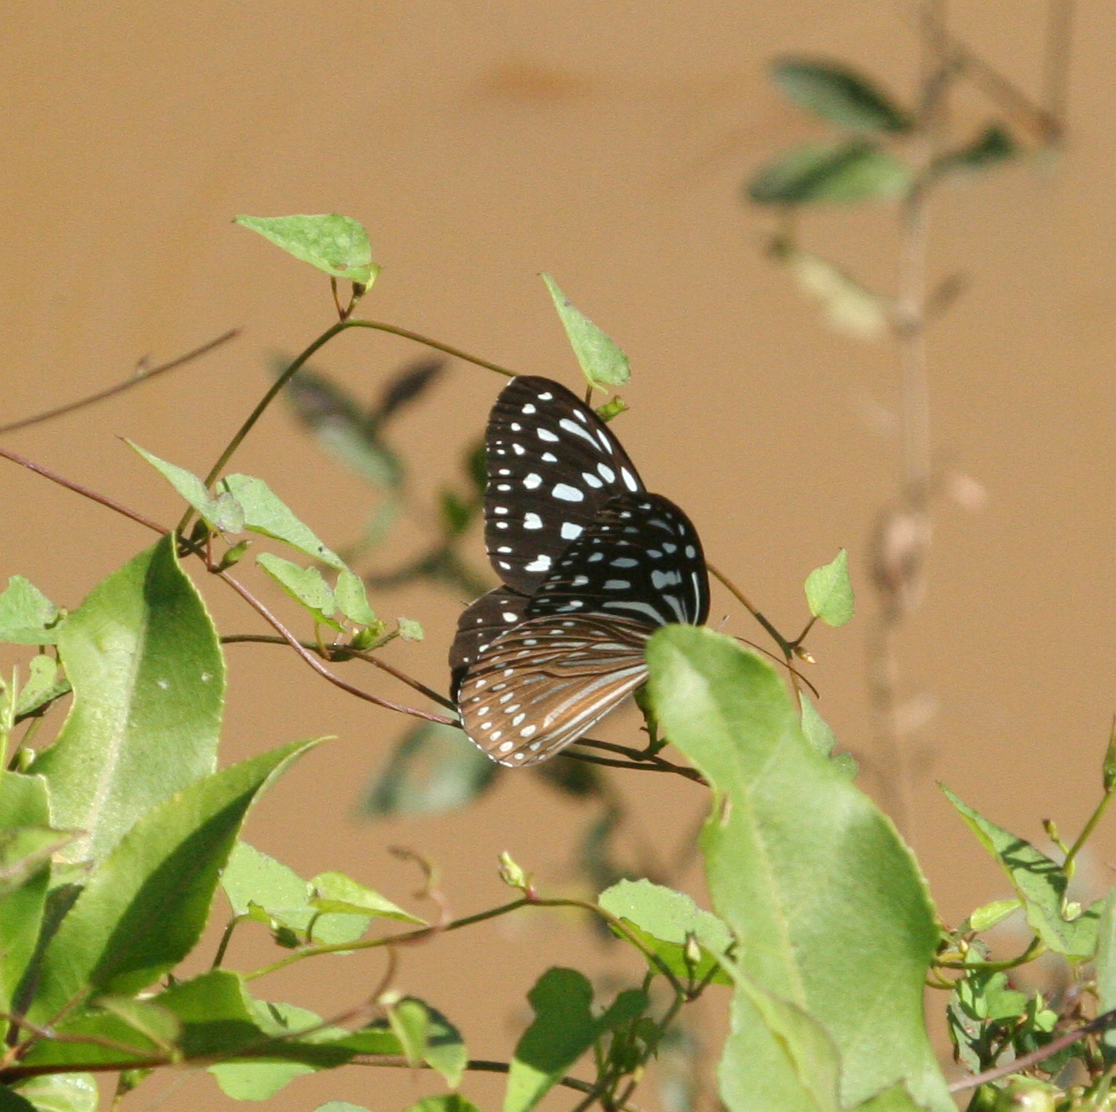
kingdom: Animalia
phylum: Arthropoda
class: Insecta
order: Lepidoptera
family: Nymphalidae
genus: Ideopsis
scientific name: Ideopsis vulgaris
